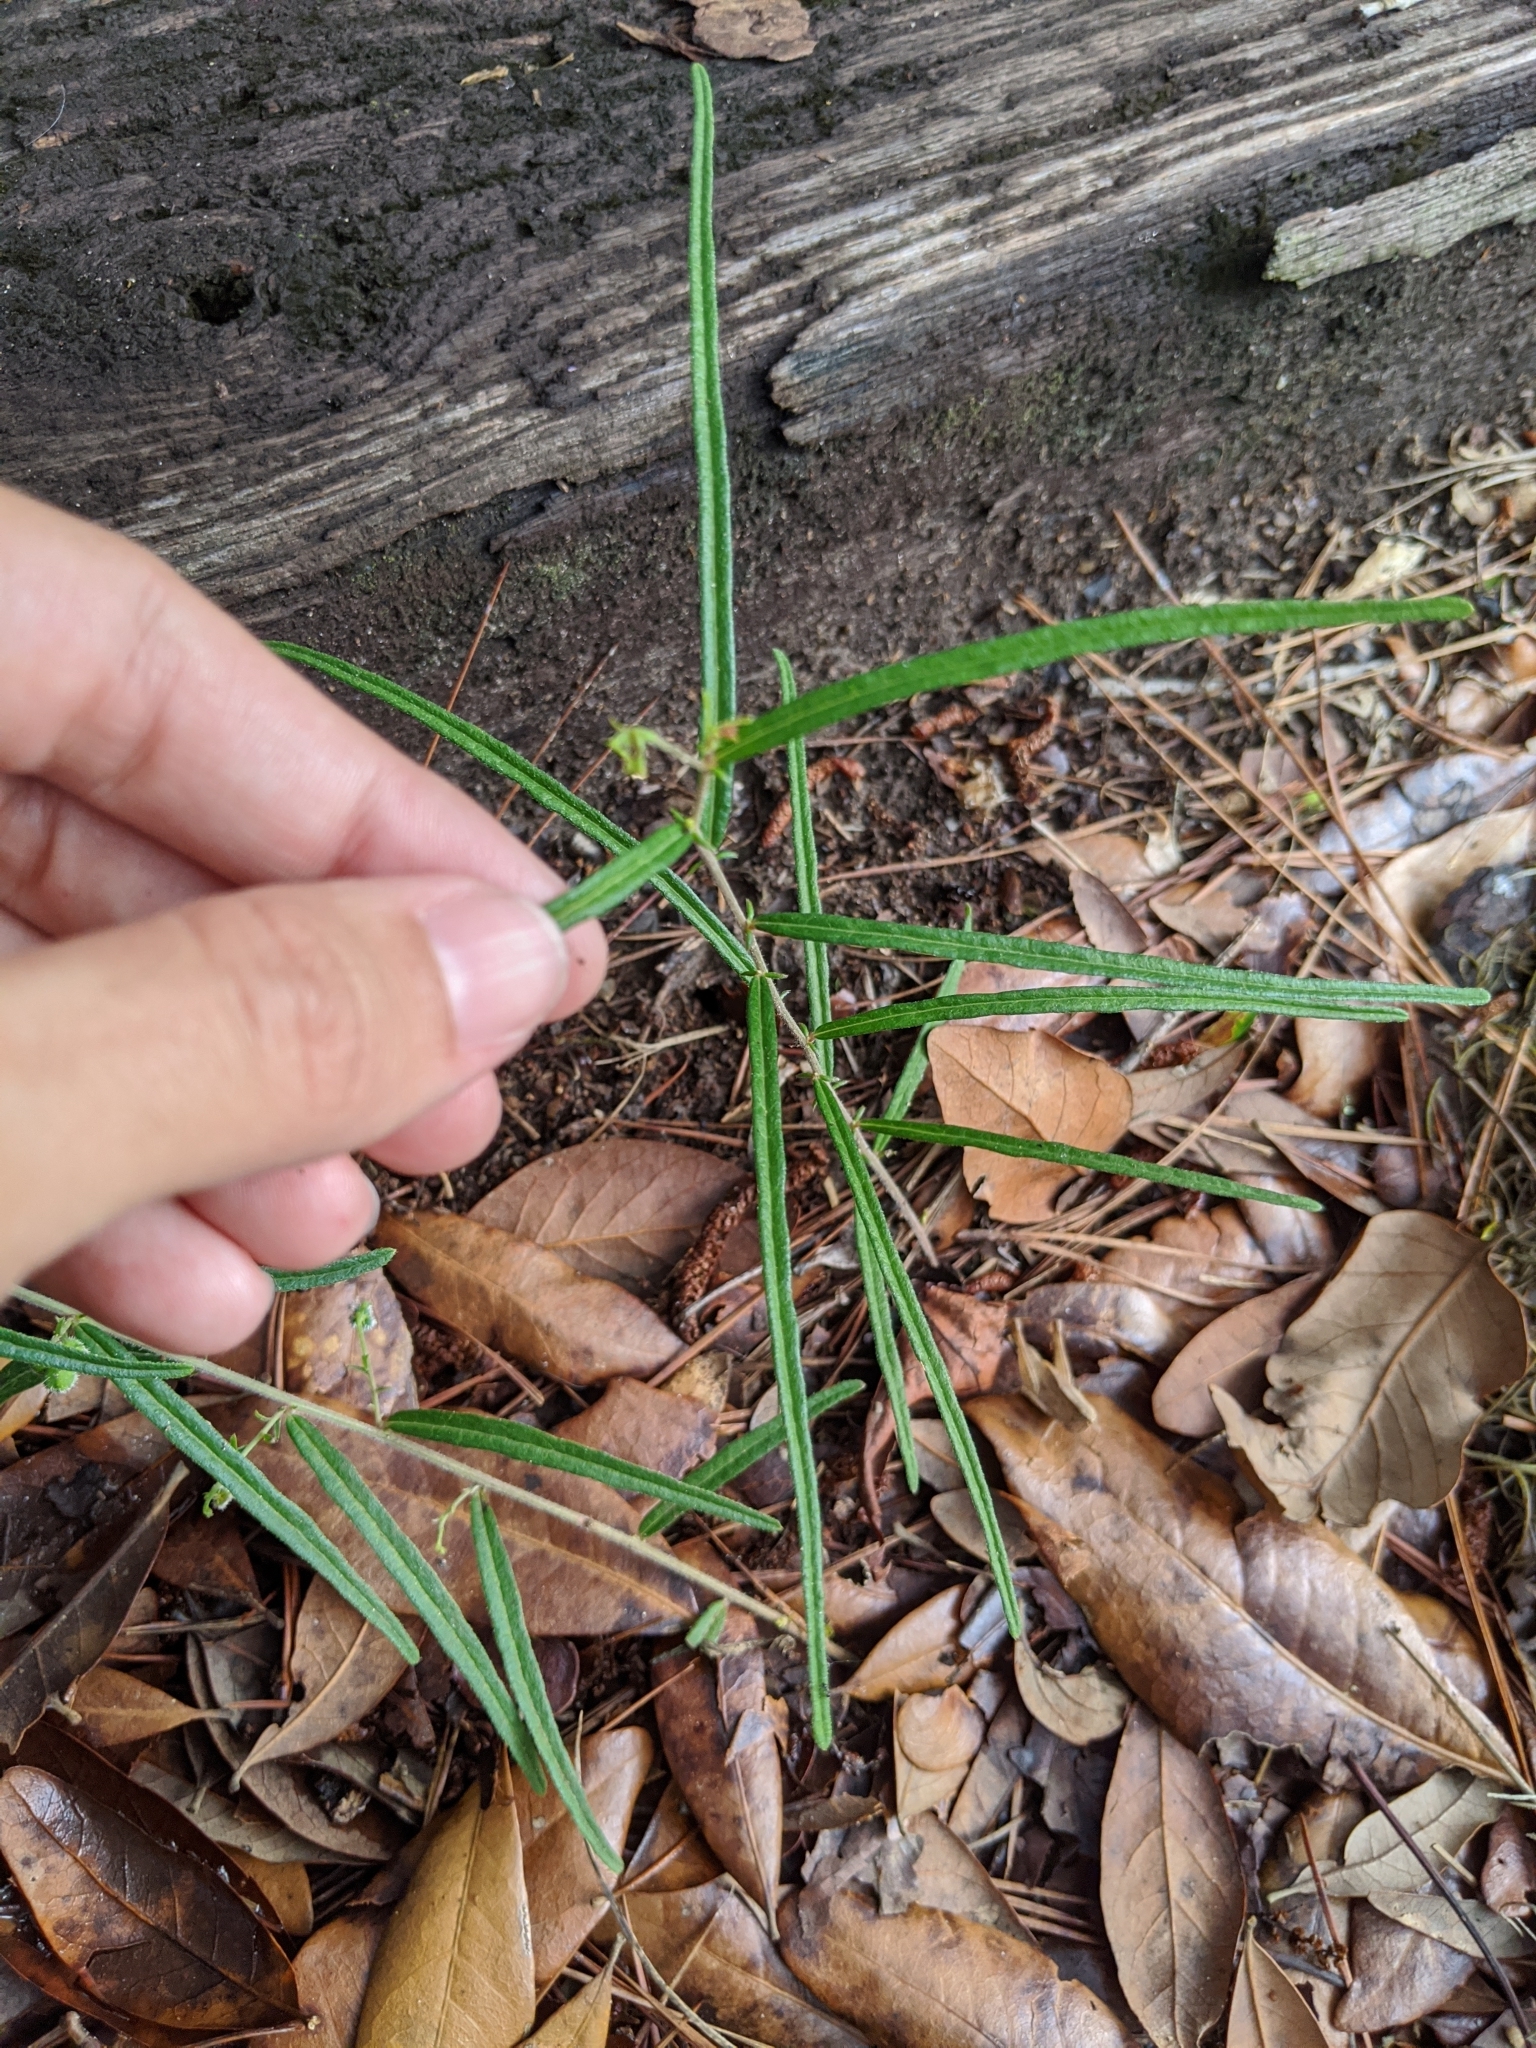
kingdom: Plantae
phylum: Tracheophyta
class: Magnoliopsida
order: Malpighiales
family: Euphorbiaceae
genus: Tragia
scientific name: Tragia urens
